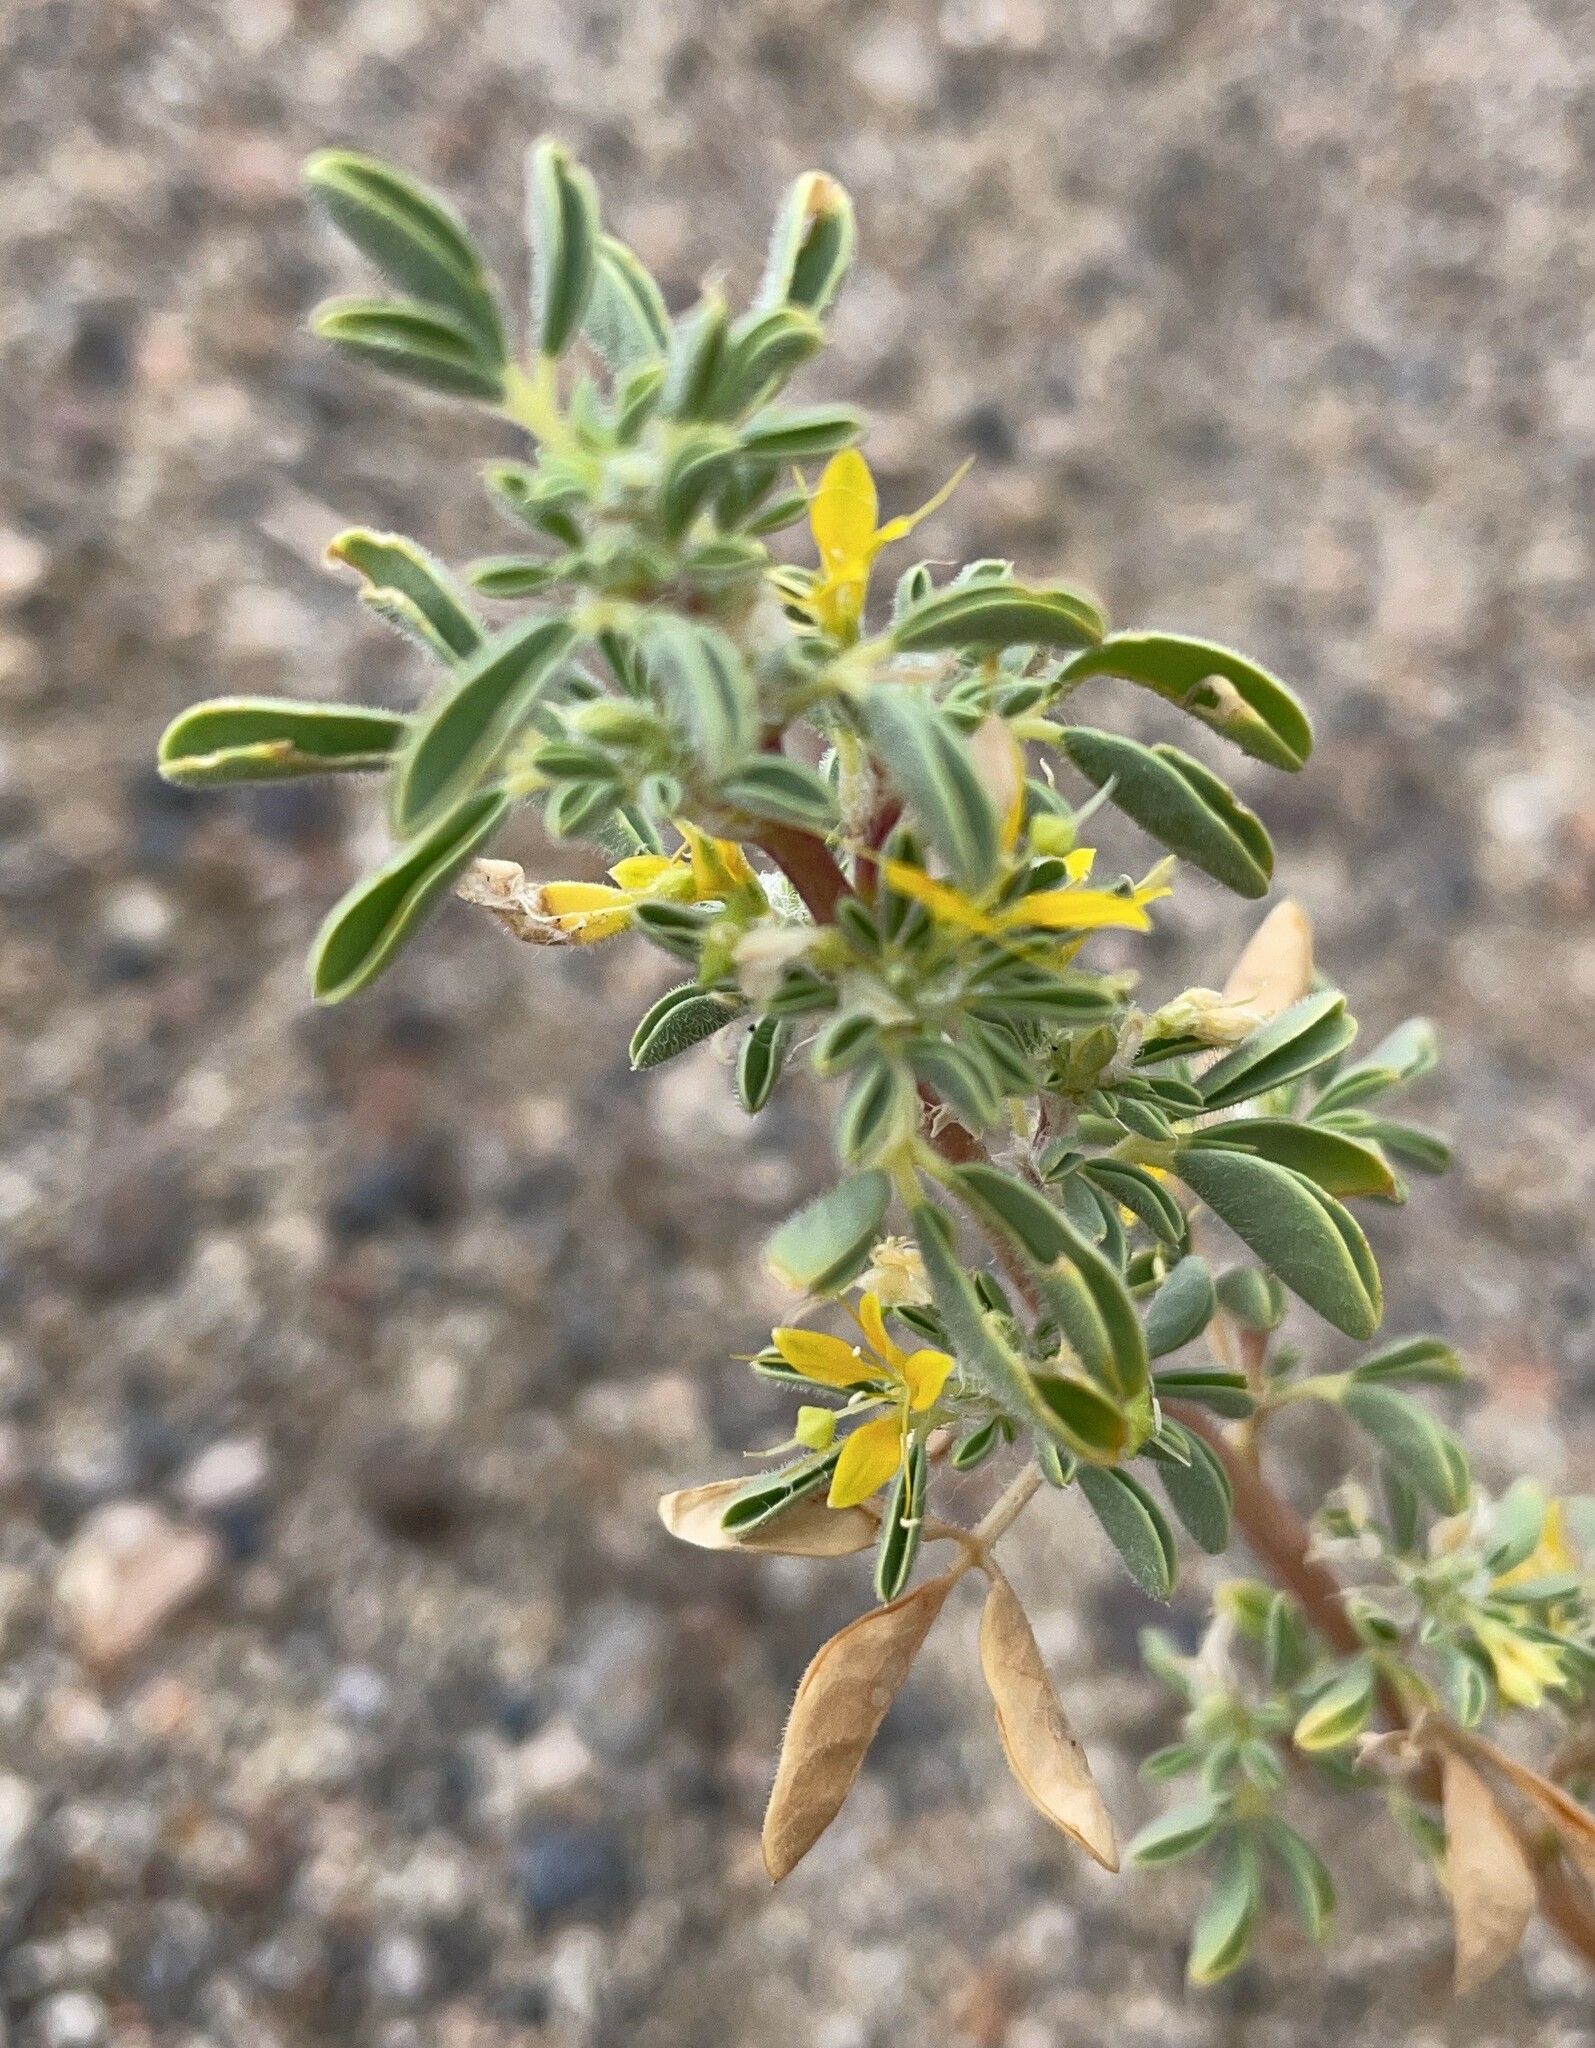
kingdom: Plantae
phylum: Tracheophyta
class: Magnoliopsida
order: Brassicales
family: Cleomaceae
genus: Cleomella
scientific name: Cleomella obtusifolia
